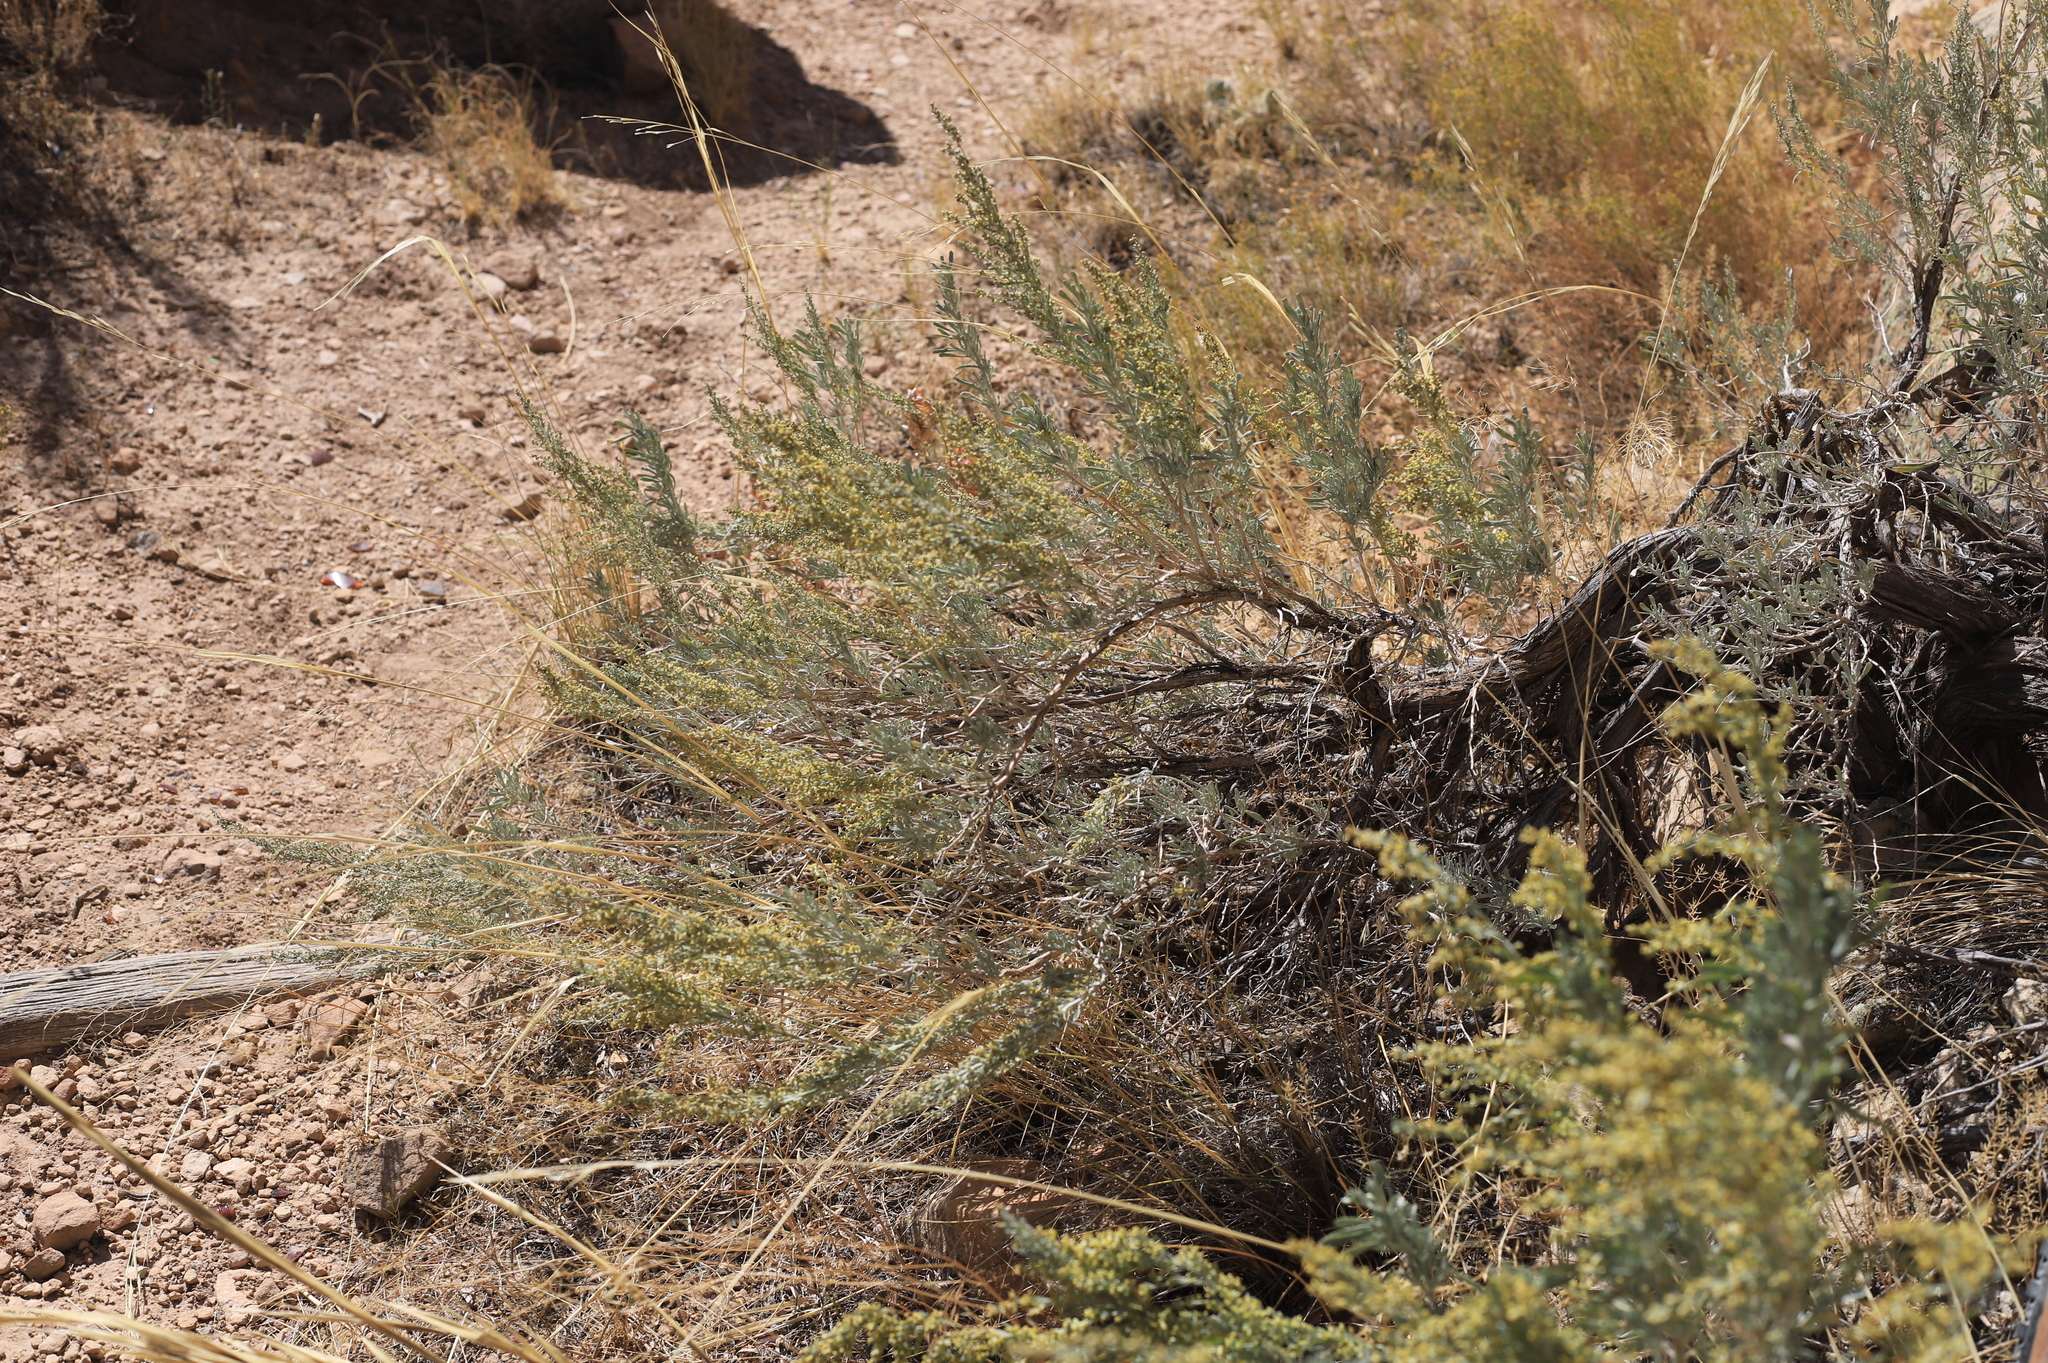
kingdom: Plantae
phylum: Tracheophyta
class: Magnoliopsida
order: Asterales
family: Asteraceae
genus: Artemisia
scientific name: Artemisia tridentata
